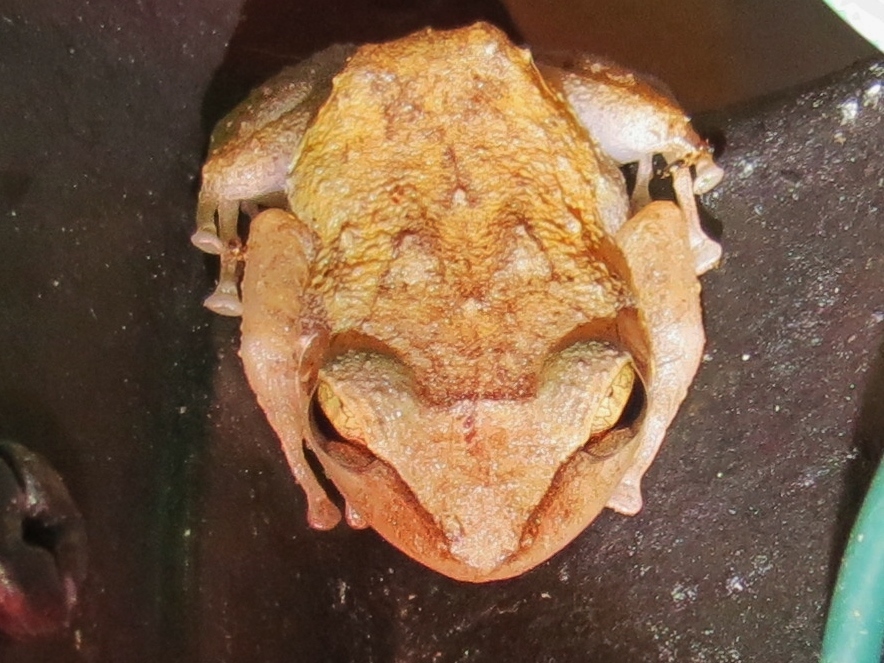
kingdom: Animalia
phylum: Chordata
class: Amphibia
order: Anura
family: Eleutherodactylidae
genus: Eleutherodactylus
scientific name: Eleutherodactylus coqui
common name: Coqui frog
